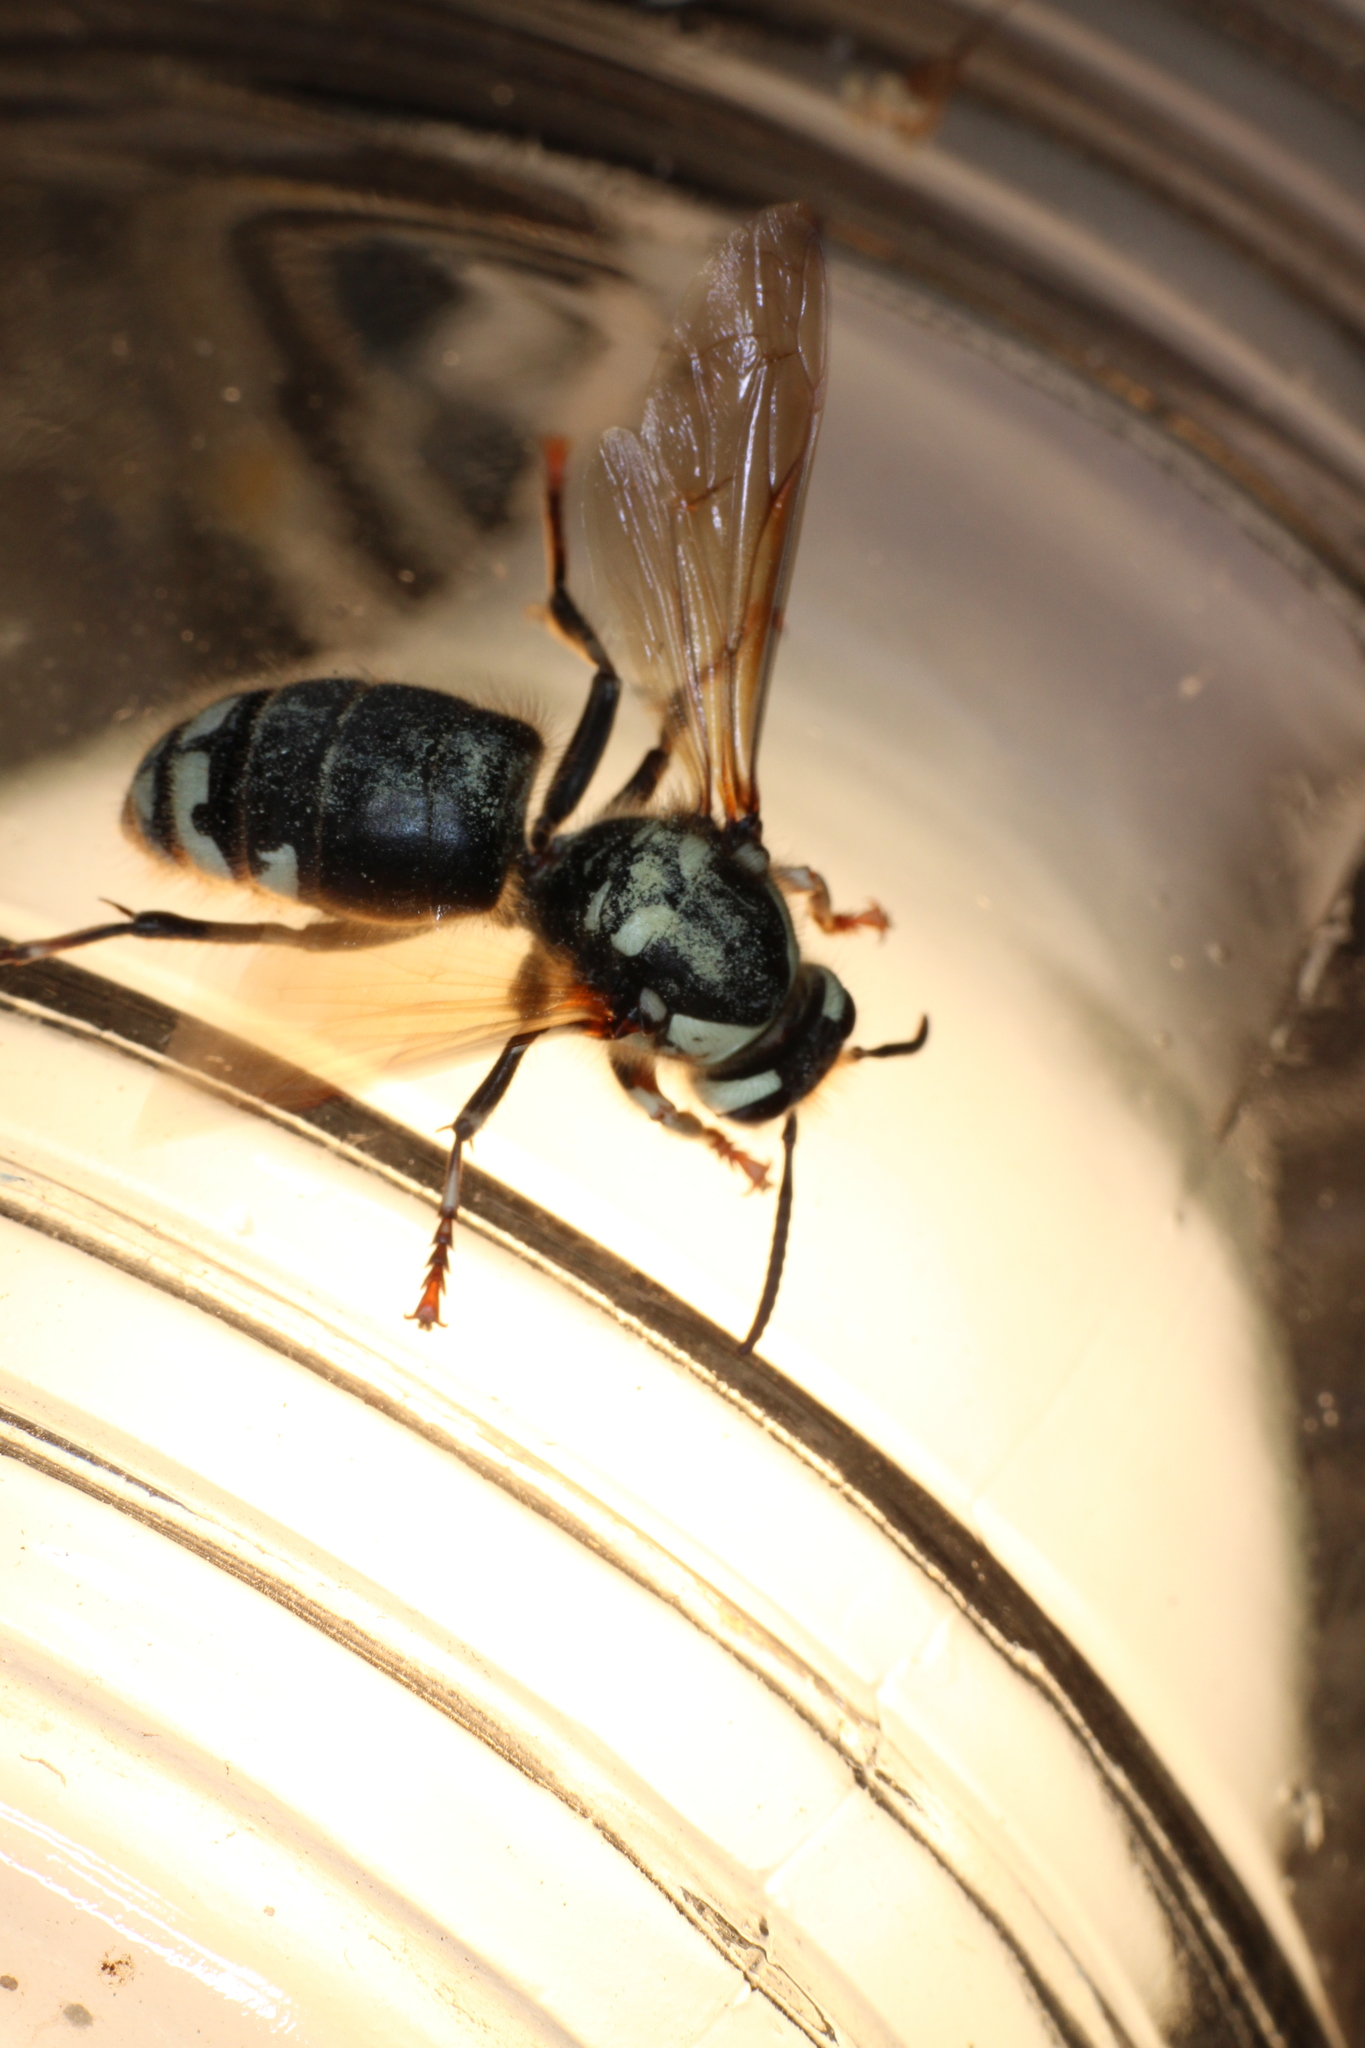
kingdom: Animalia
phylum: Arthropoda
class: Insecta
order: Hymenoptera
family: Vespidae
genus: Dolichovespula
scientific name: Dolichovespula maculata
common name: Bald-faced hornet
